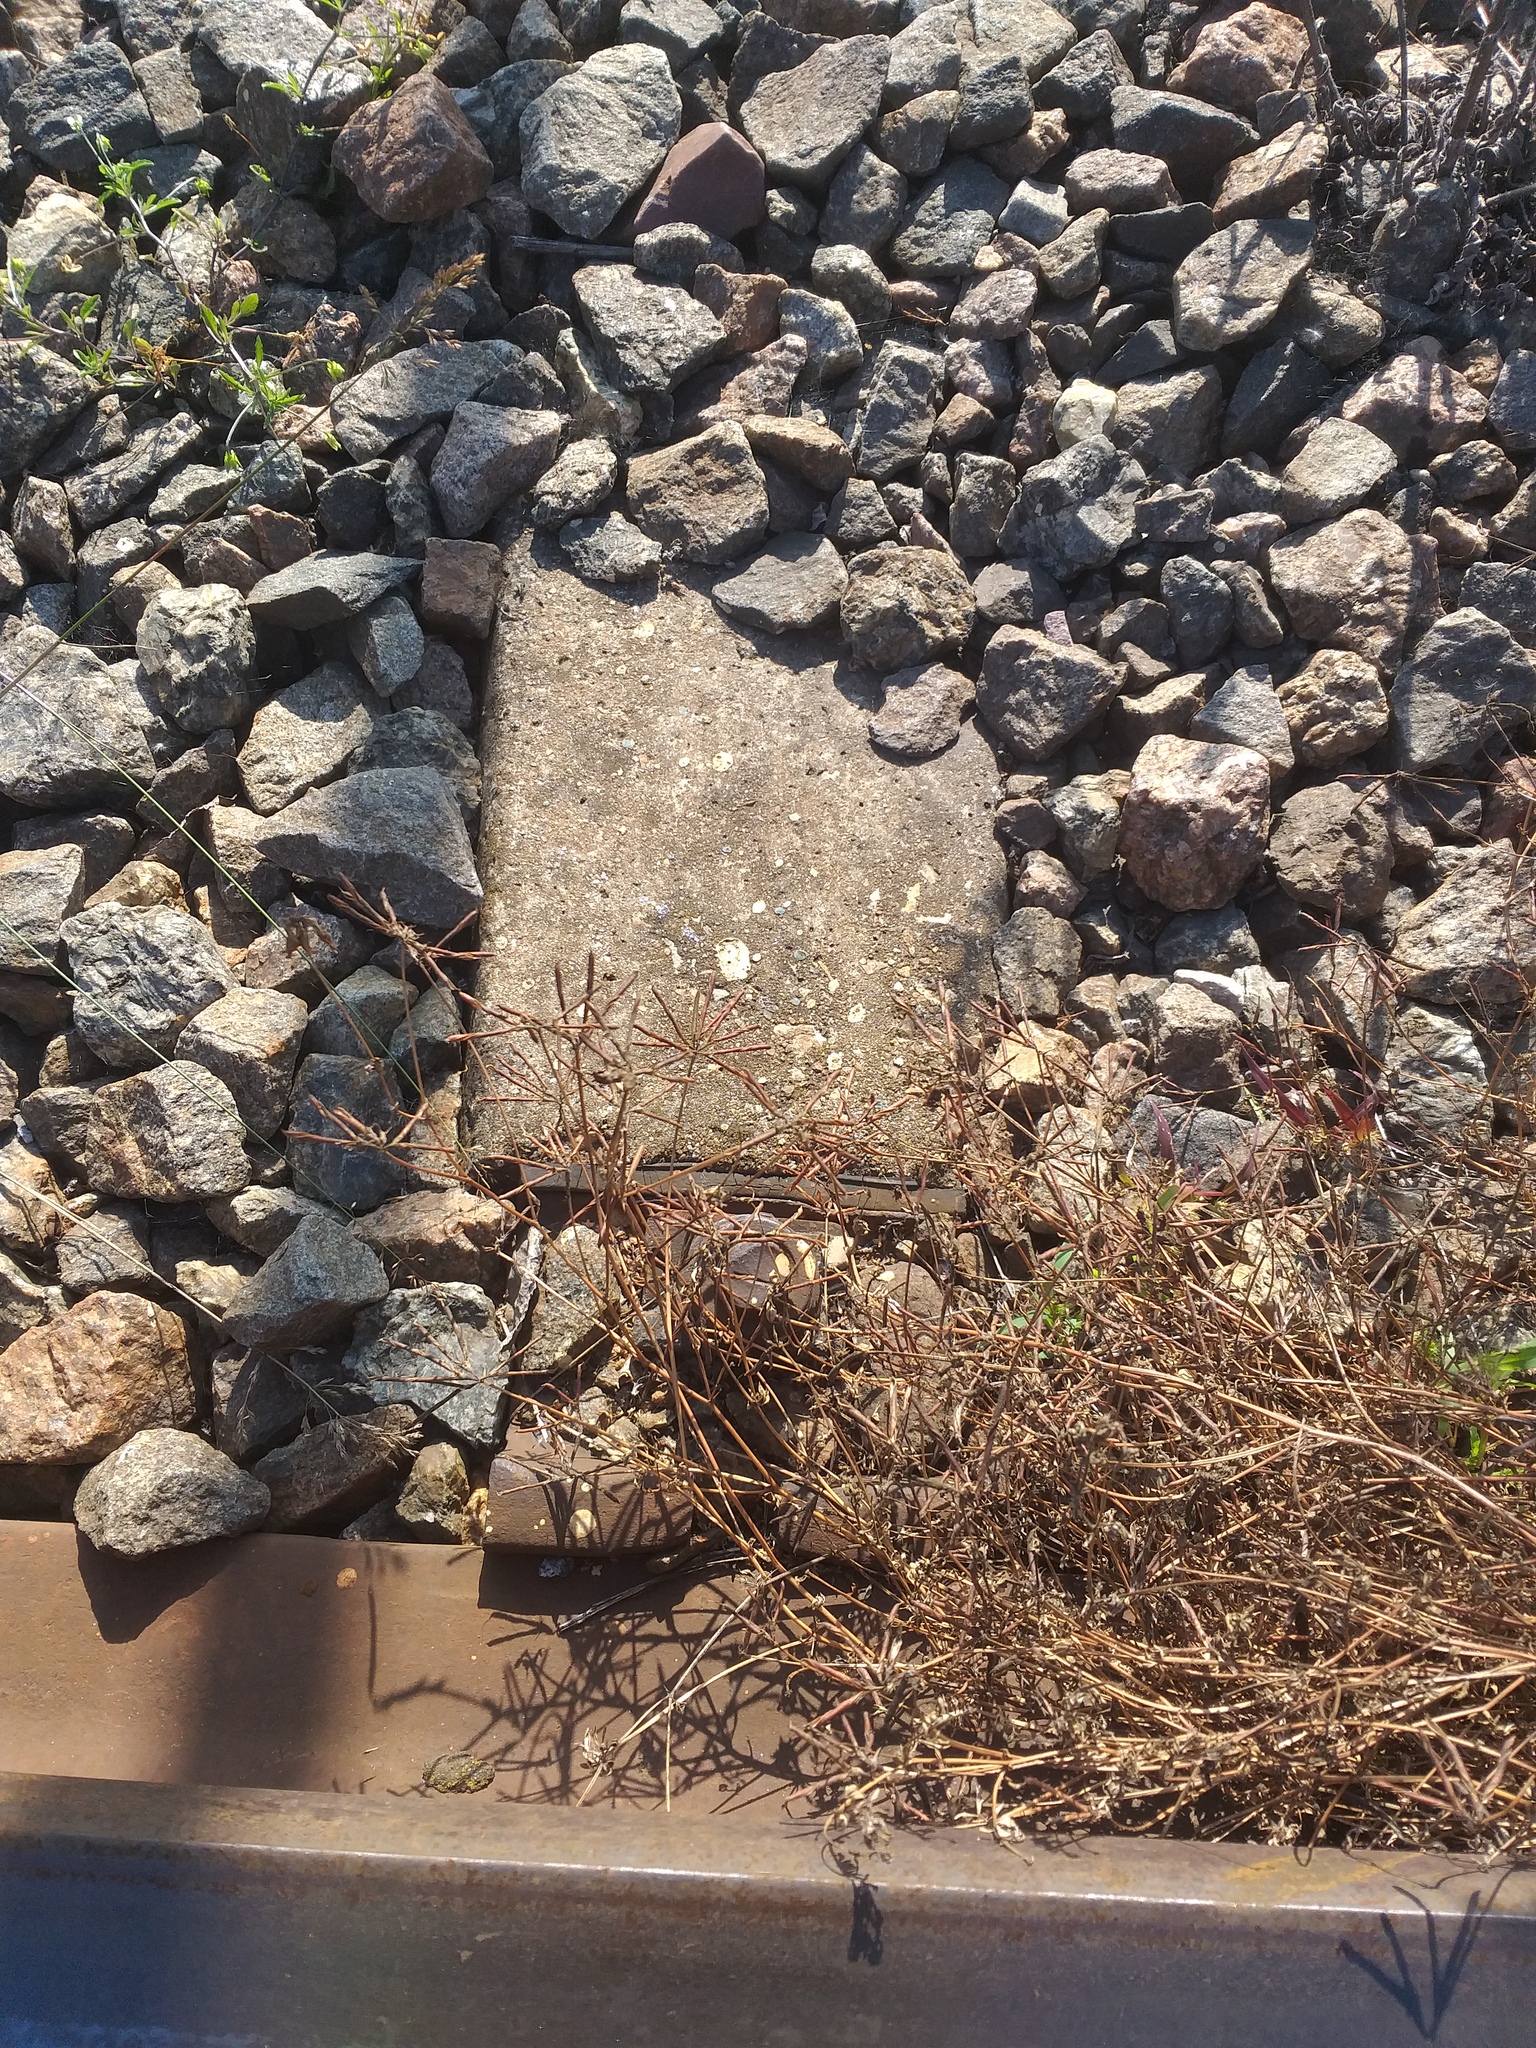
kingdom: Plantae
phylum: Tracheophyta
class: Magnoliopsida
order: Fabales
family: Fabaceae
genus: Lotus
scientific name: Lotus corniculatus
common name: Common bird's-foot-trefoil
